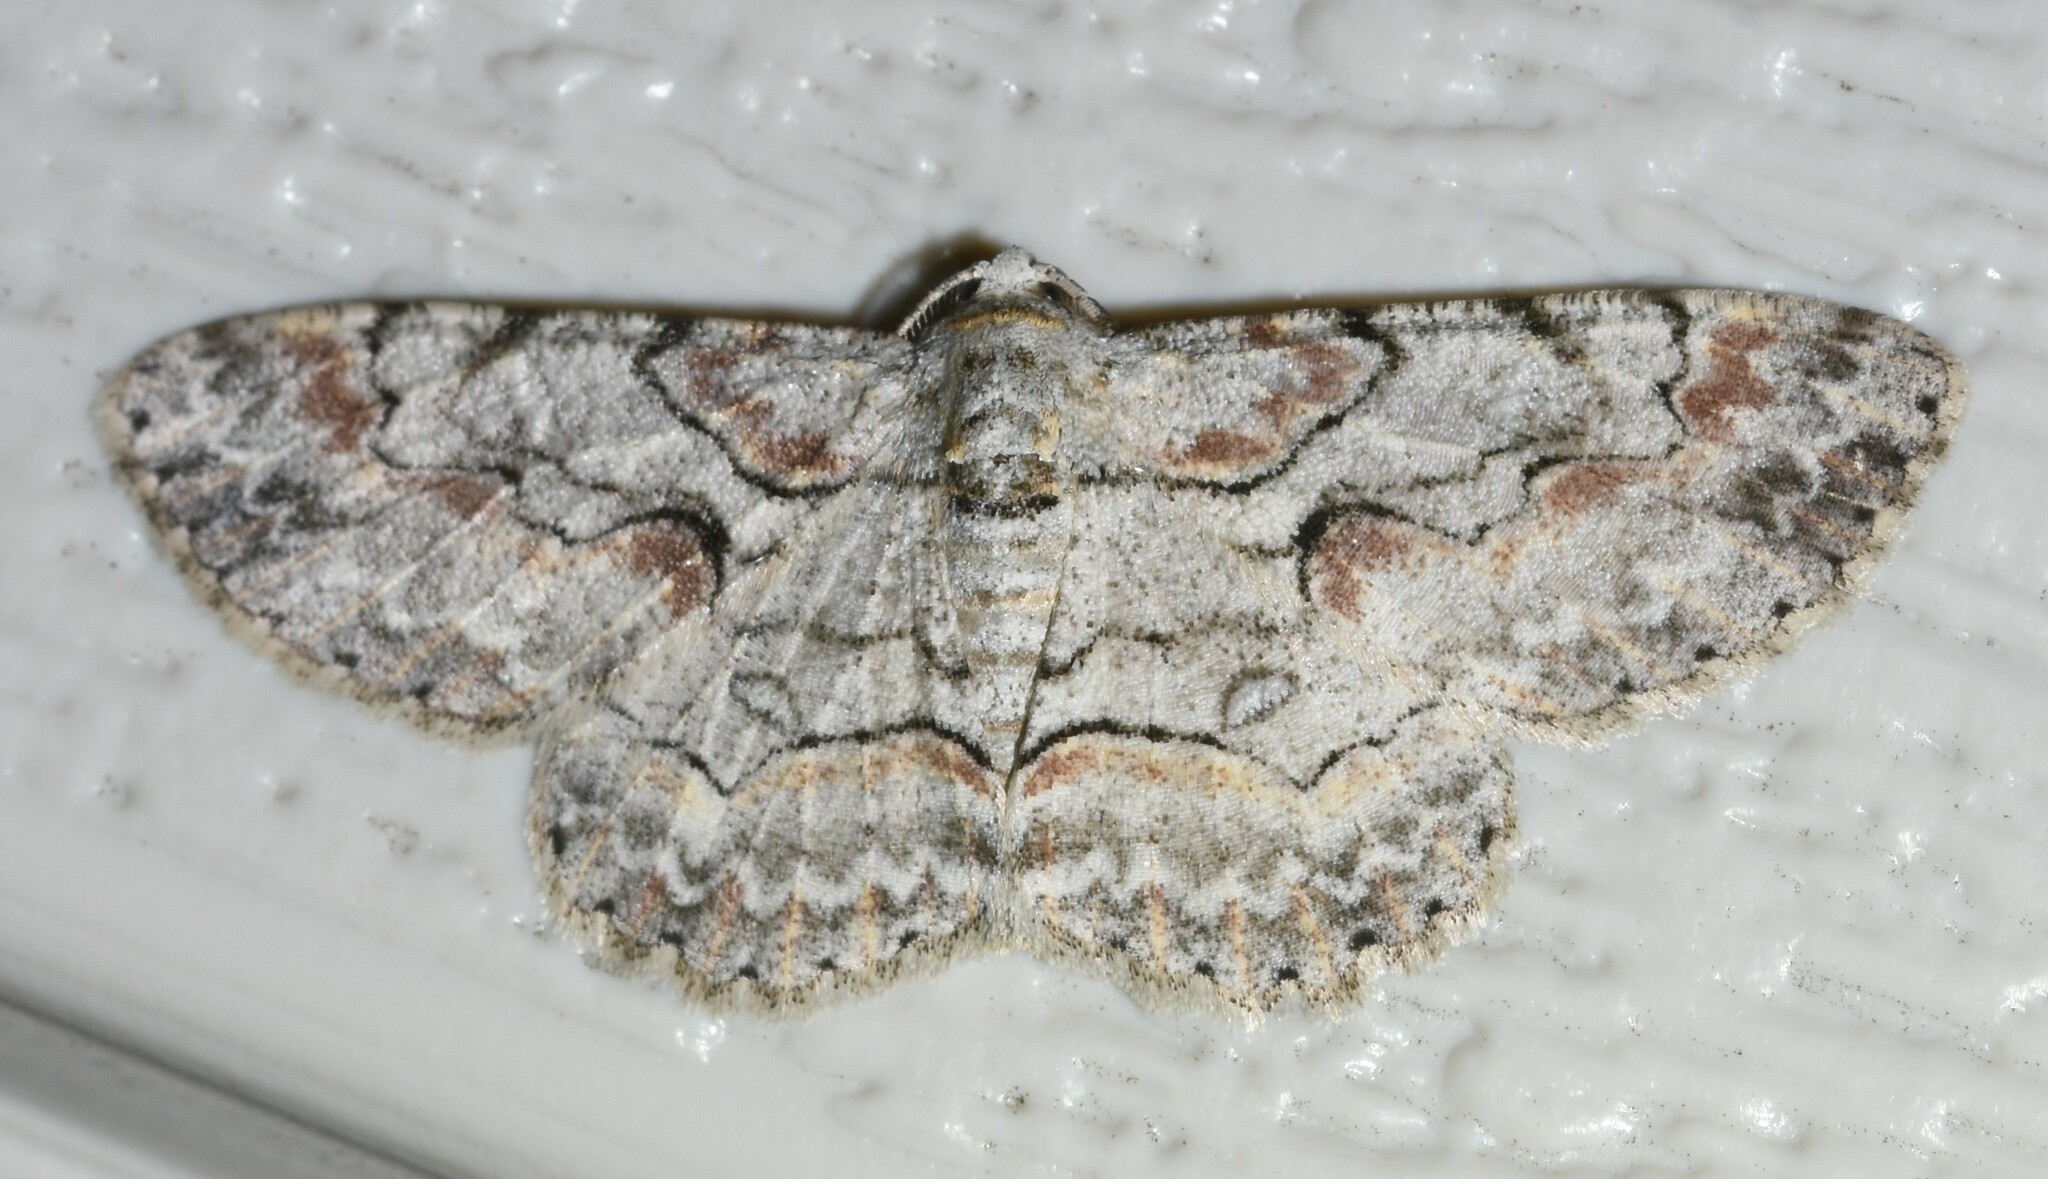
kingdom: Animalia
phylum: Arthropoda
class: Insecta
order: Lepidoptera
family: Geometridae
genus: Iridopsis
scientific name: Iridopsis defectaria
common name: Brown-shaded gray
